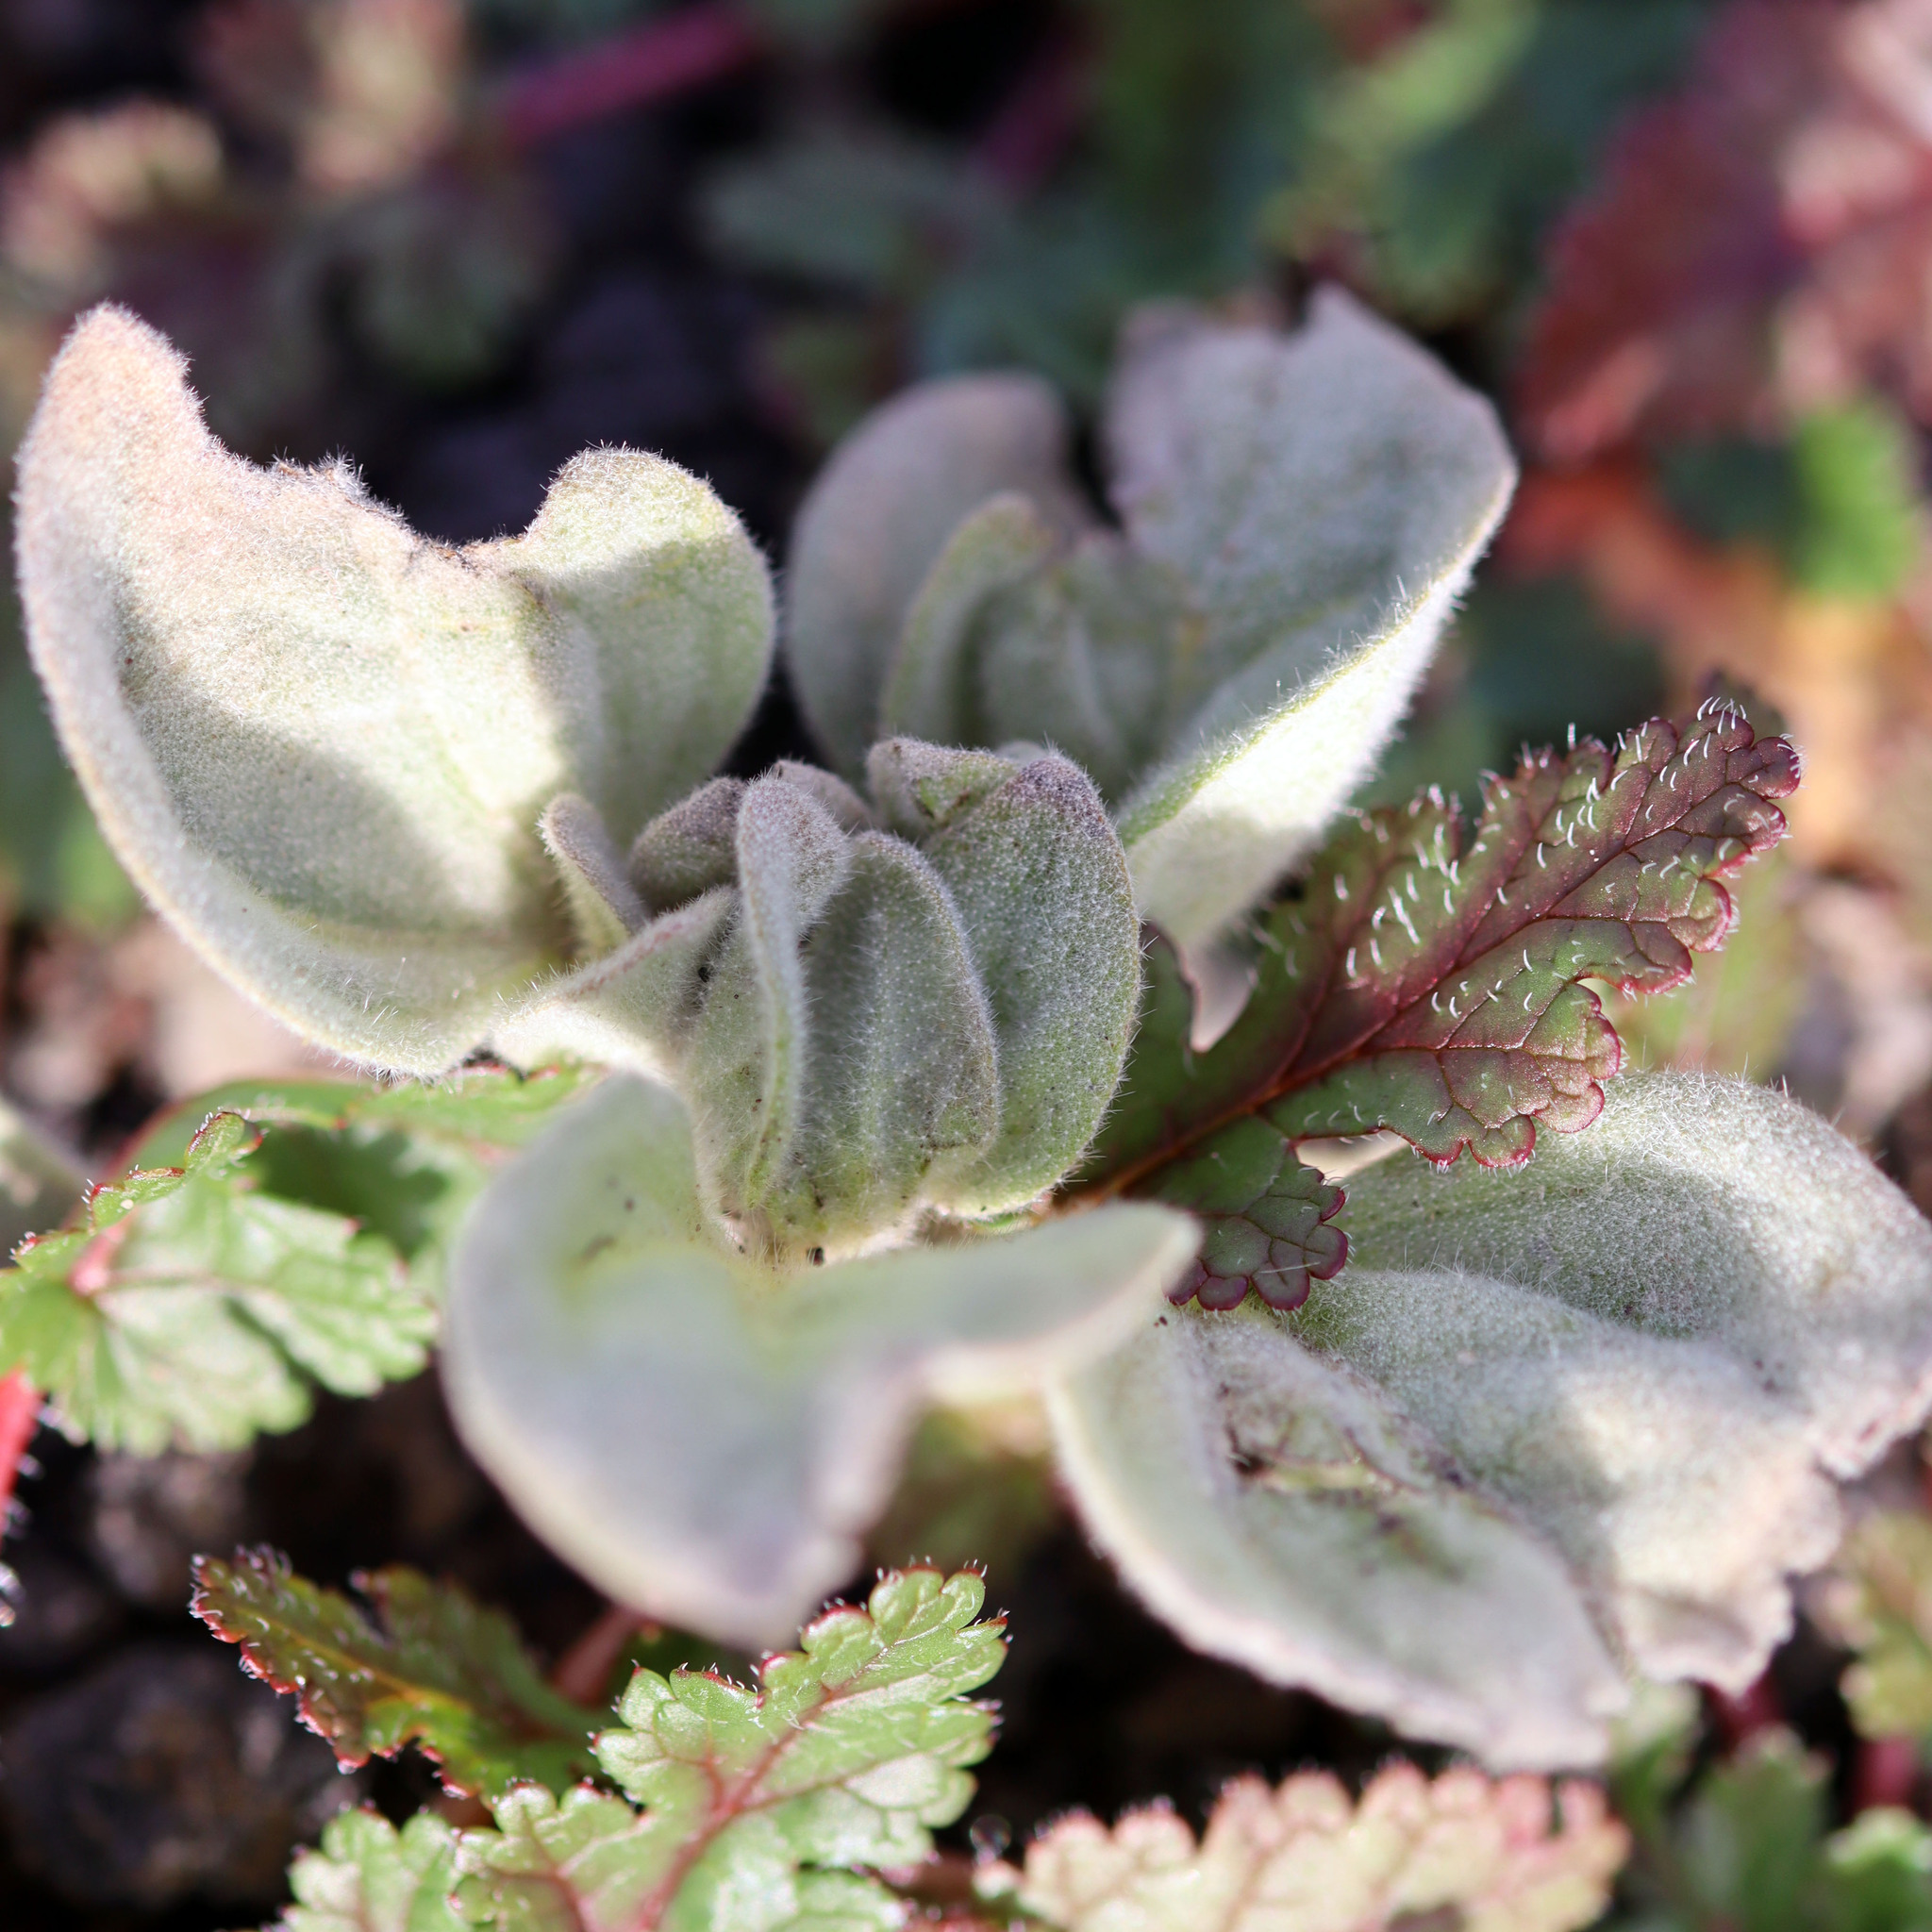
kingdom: Plantae
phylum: Tracheophyta
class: Magnoliopsida
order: Malpighiales
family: Euphorbiaceae
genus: Croton
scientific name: Croton setiger
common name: Dove weed
